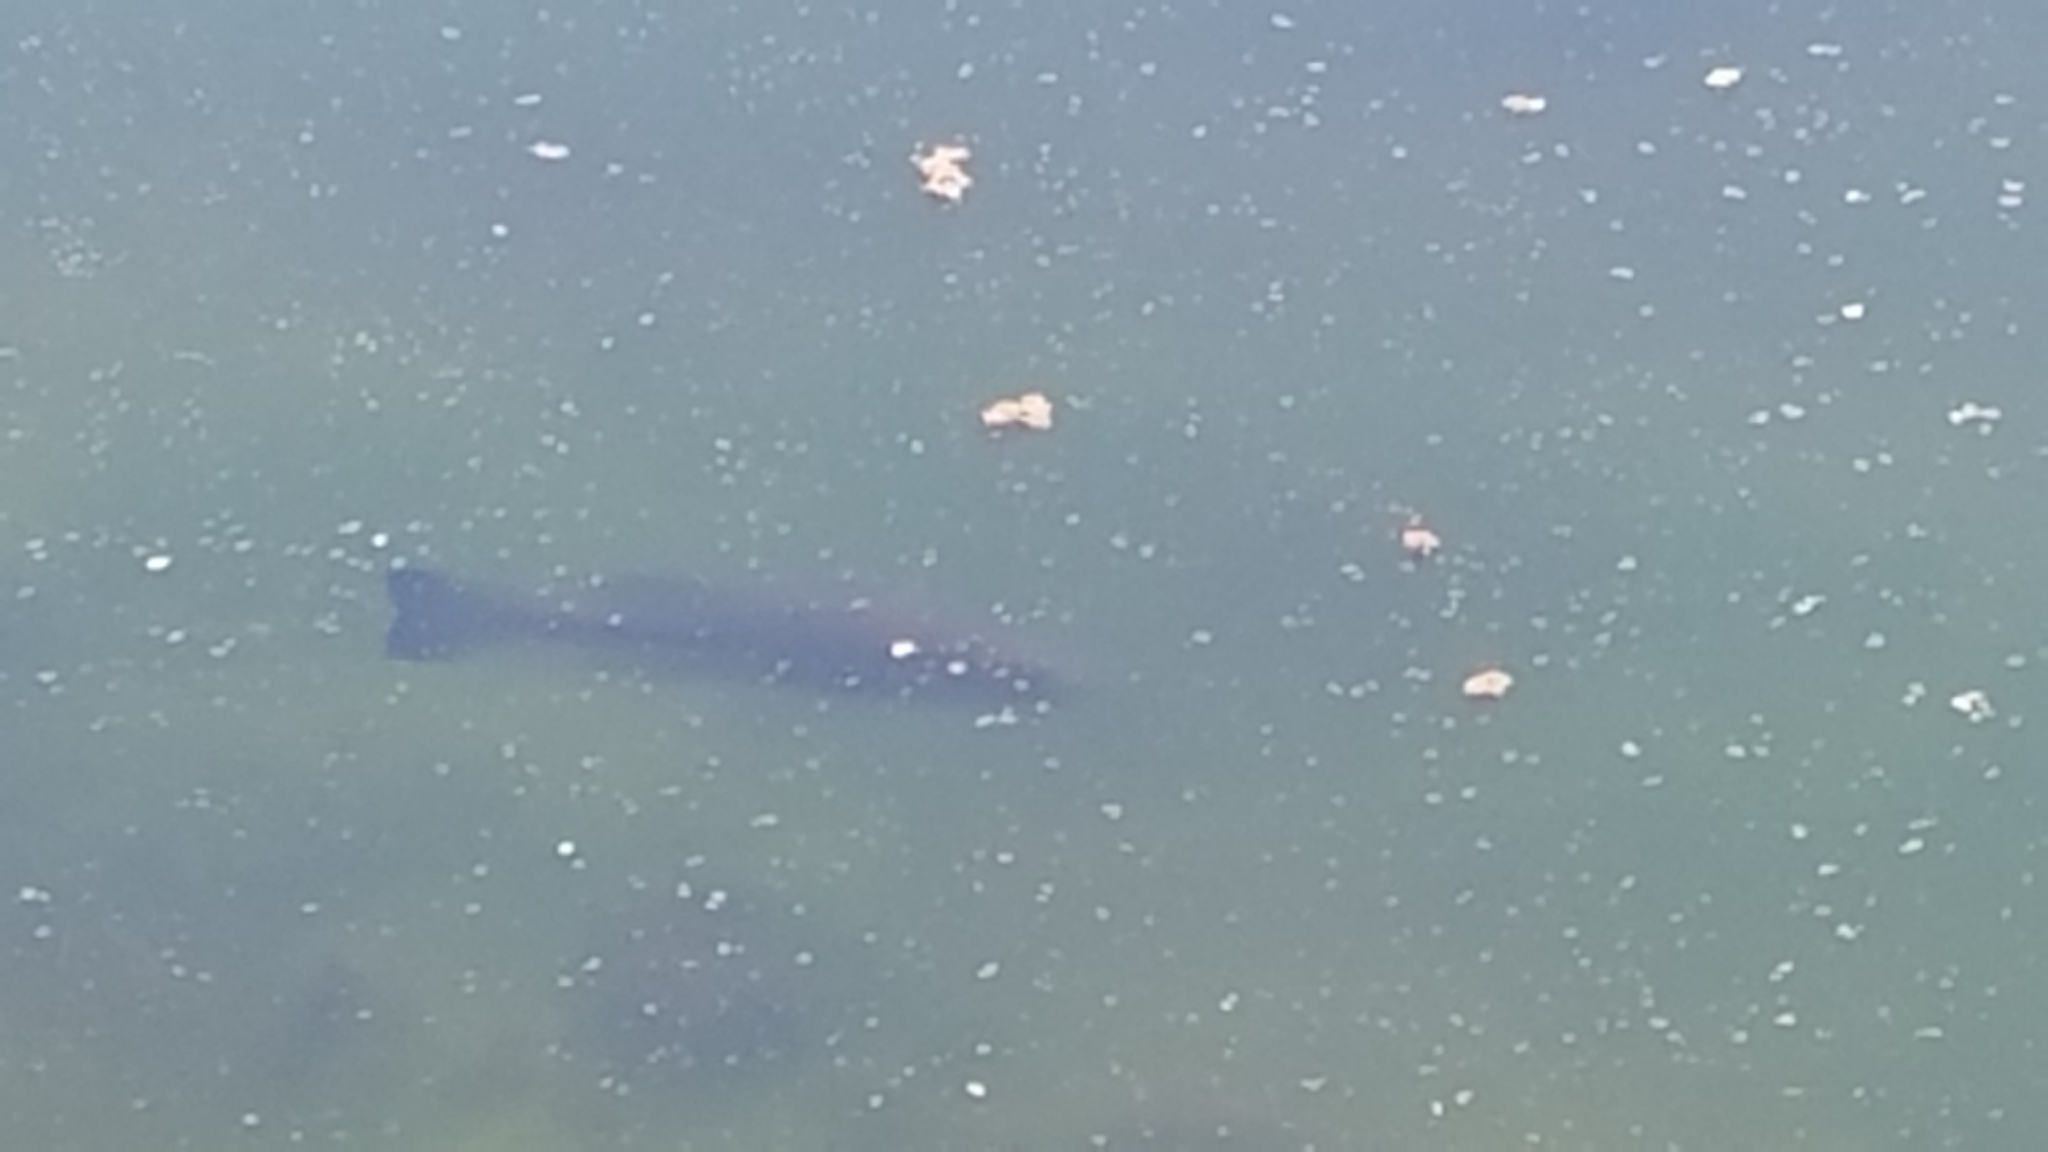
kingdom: Animalia
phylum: Chordata
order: Perciformes
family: Centrarchidae
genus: Micropterus
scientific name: Micropterus
